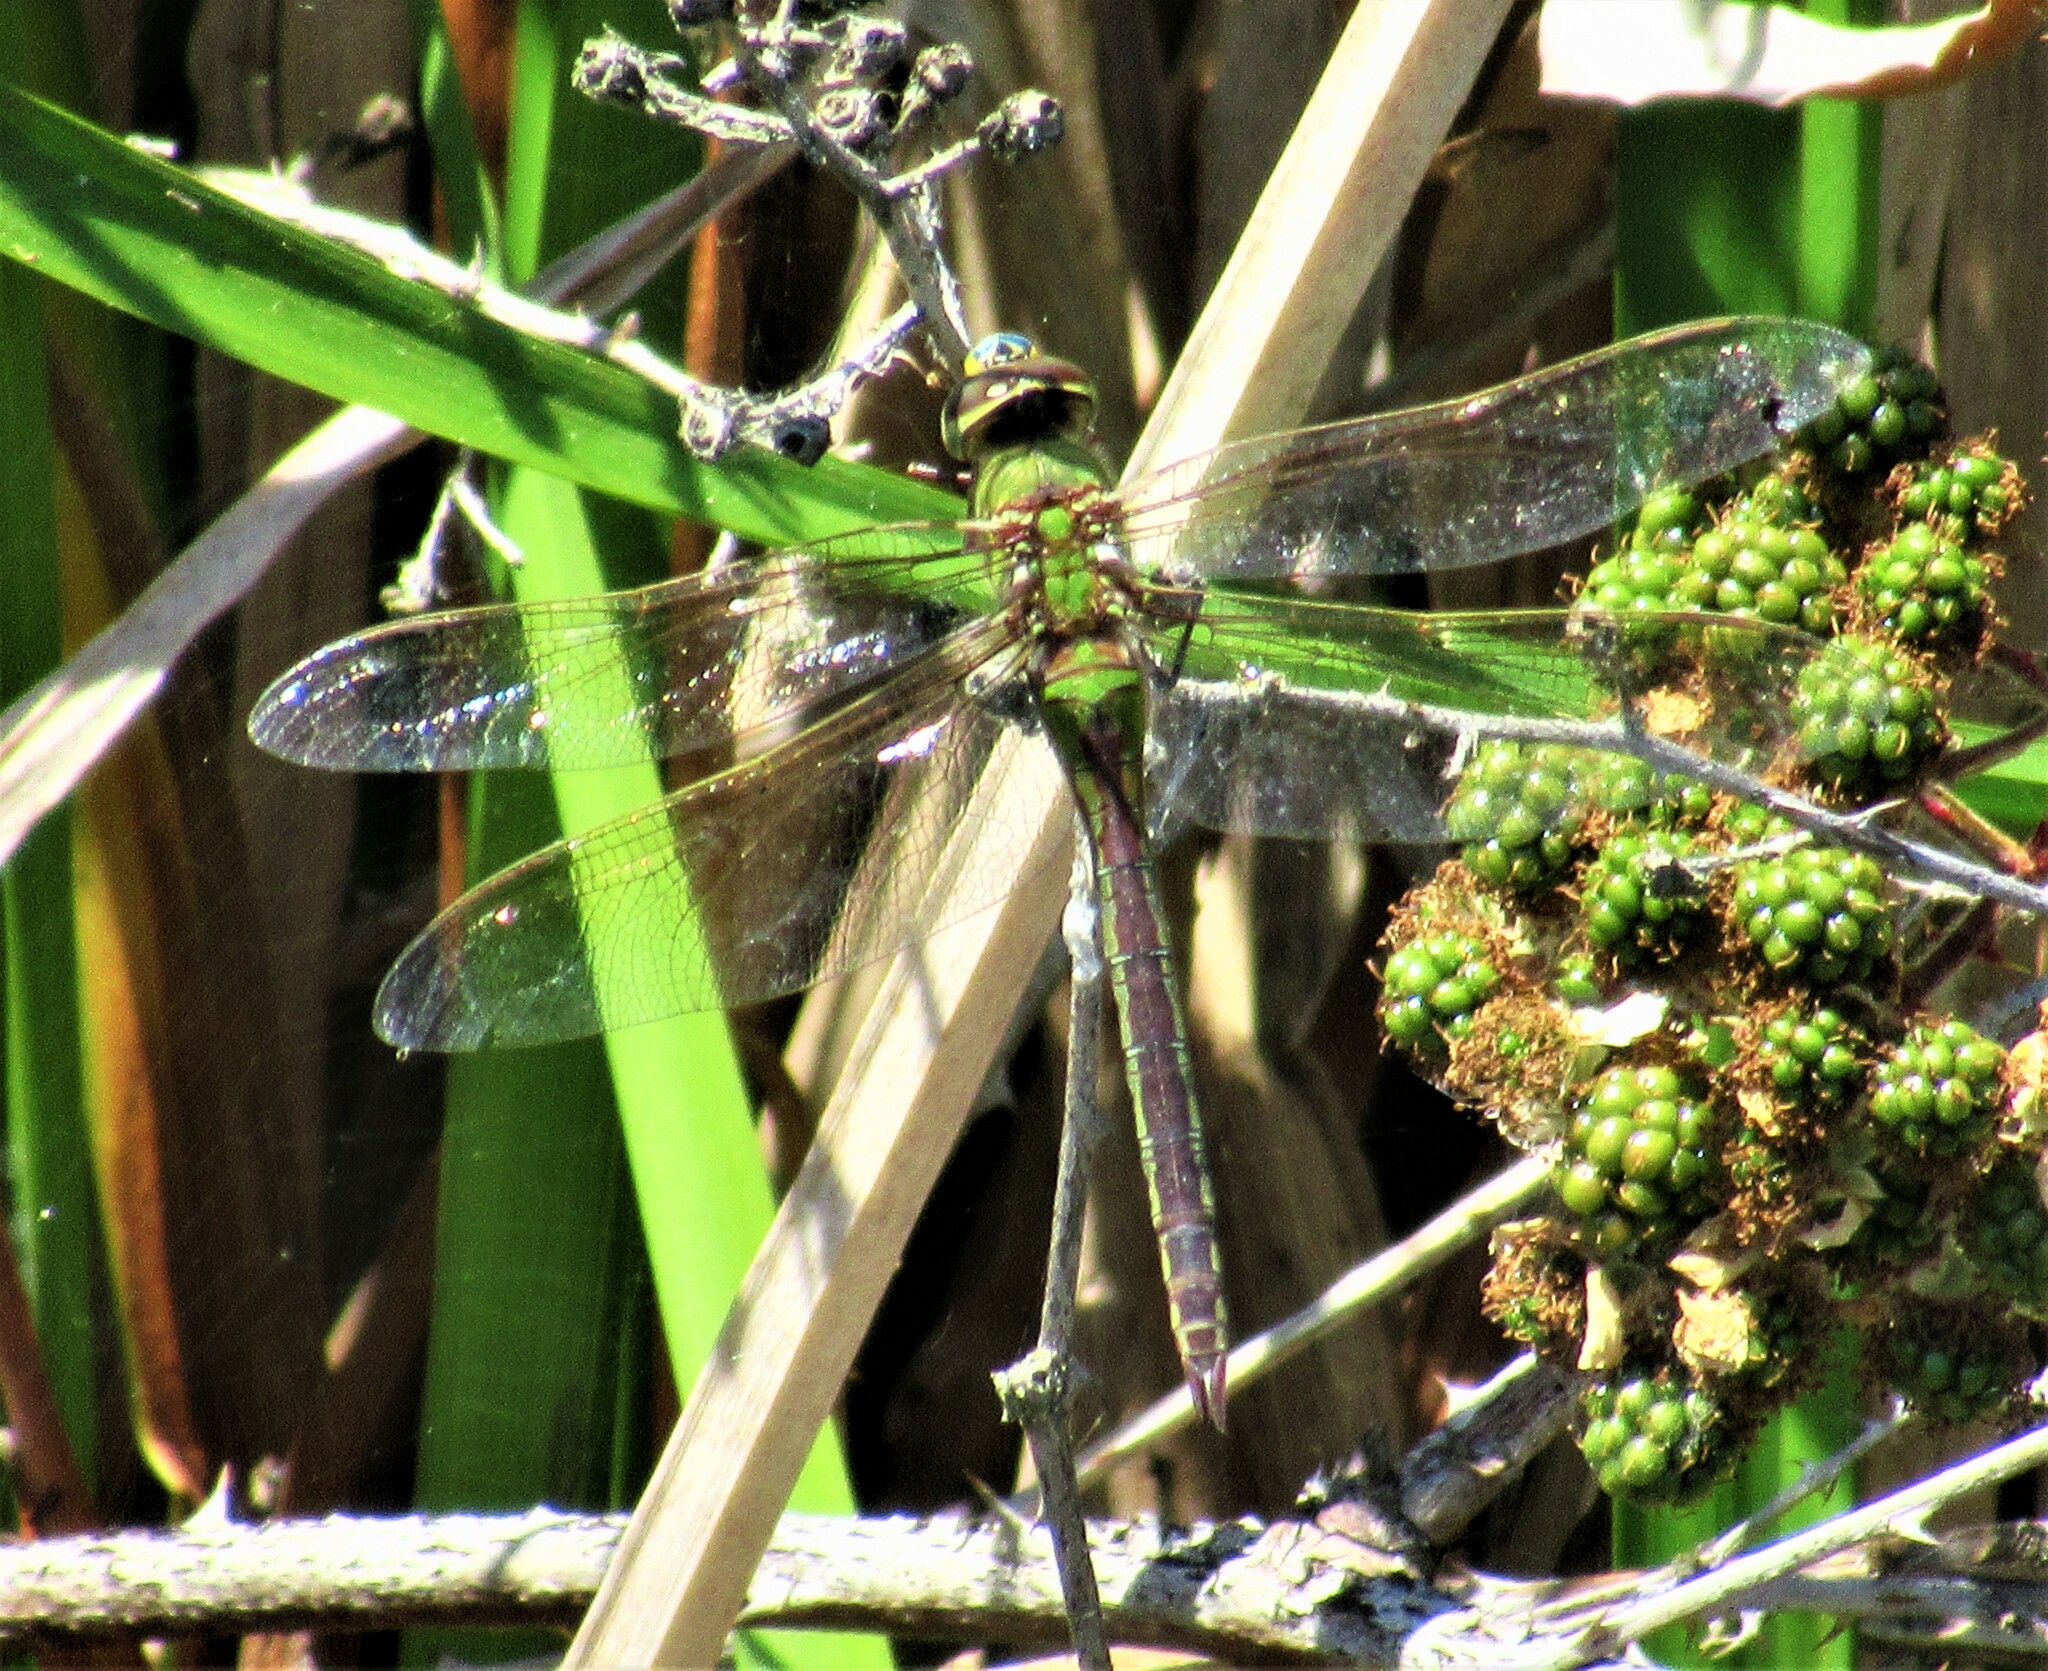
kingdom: Animalia
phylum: Arthropoda
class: Insecta
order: Odonata
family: Aeshnidae
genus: Anax
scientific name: Anax junius
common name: Common green darner
